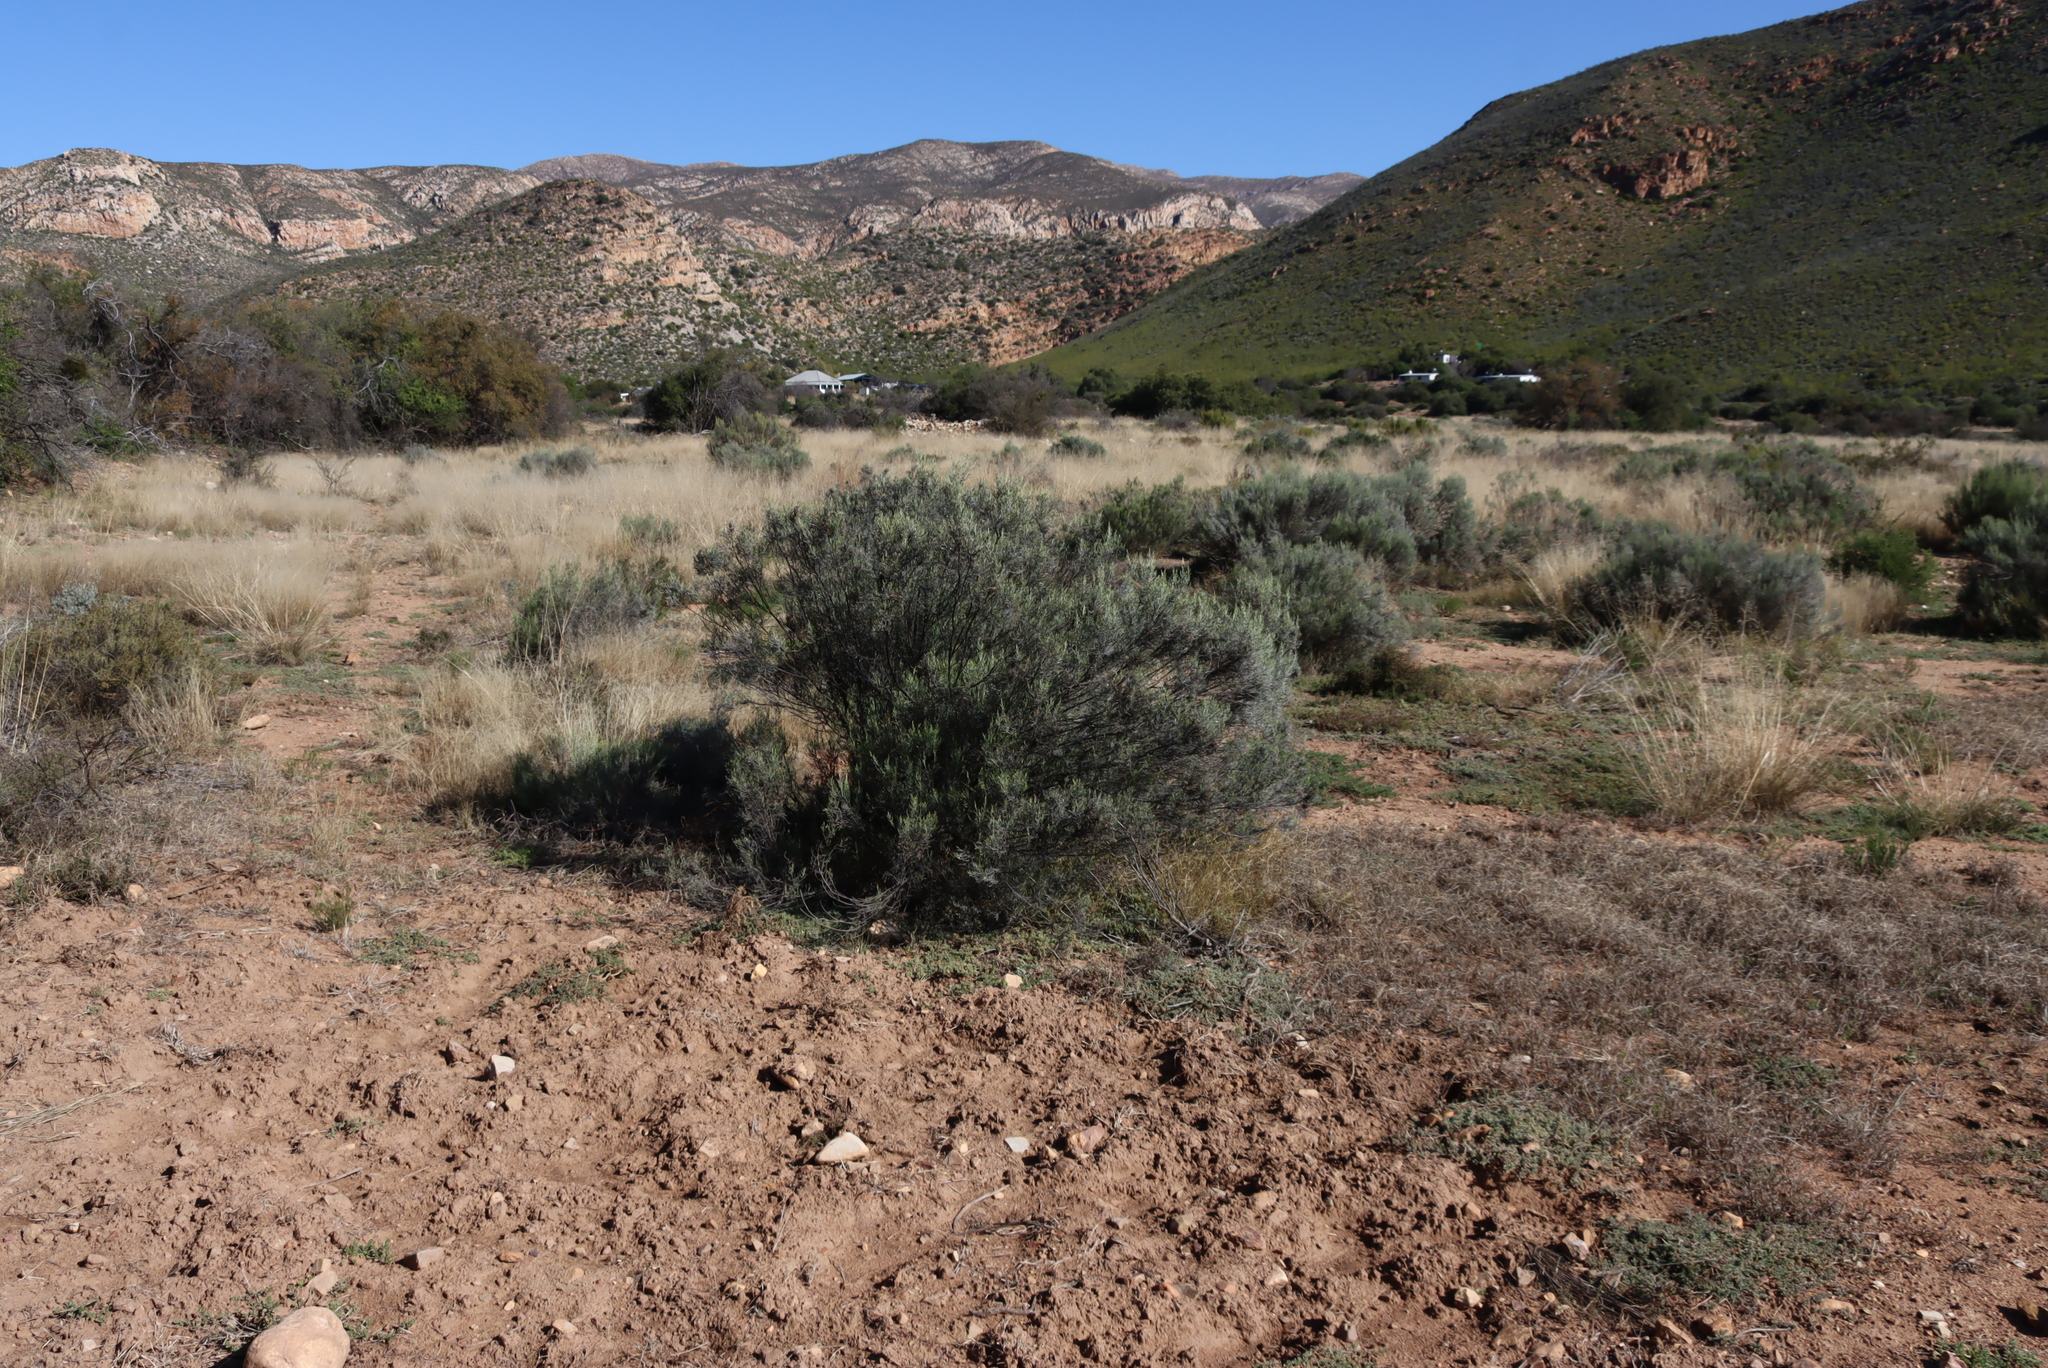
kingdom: Plantae
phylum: Tracheophyta
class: Magnoliopsida
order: Asterales
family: Asteraceae
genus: Dicerothamnus
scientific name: Dicerothamnus rhinocerotis
